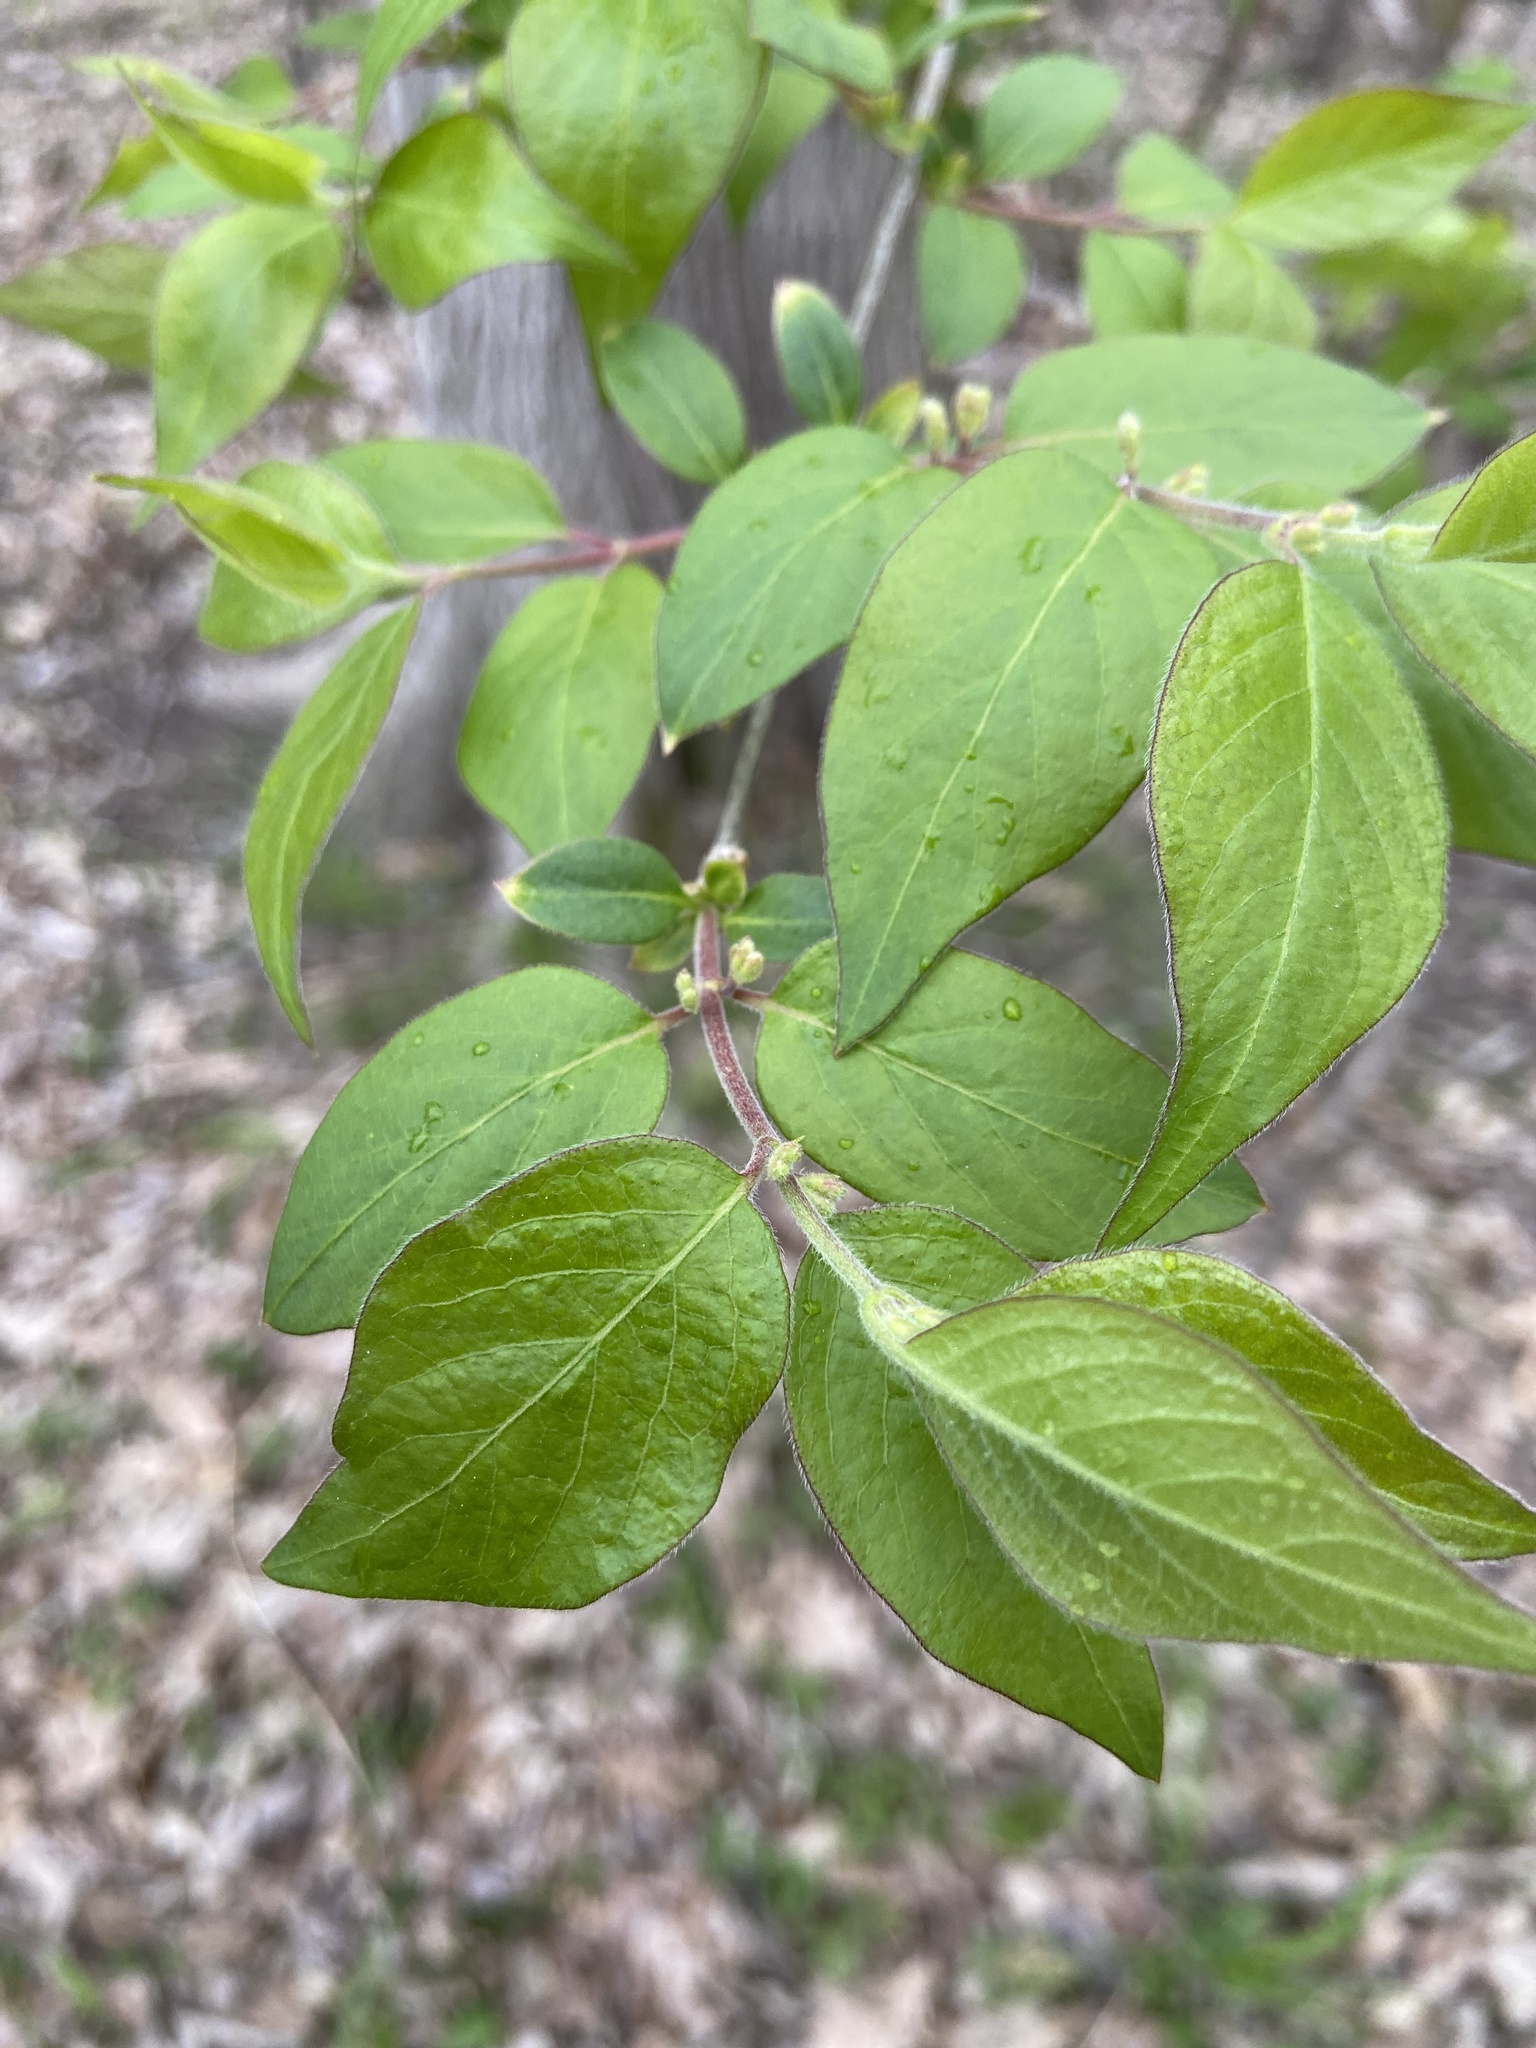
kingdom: Plantae
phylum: Tracheophyta
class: Magnoliopsida
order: Dipsacales
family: Caprifoliaceae
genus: Lonicera
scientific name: Lonicera maackii
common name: Amur honeysuckle
